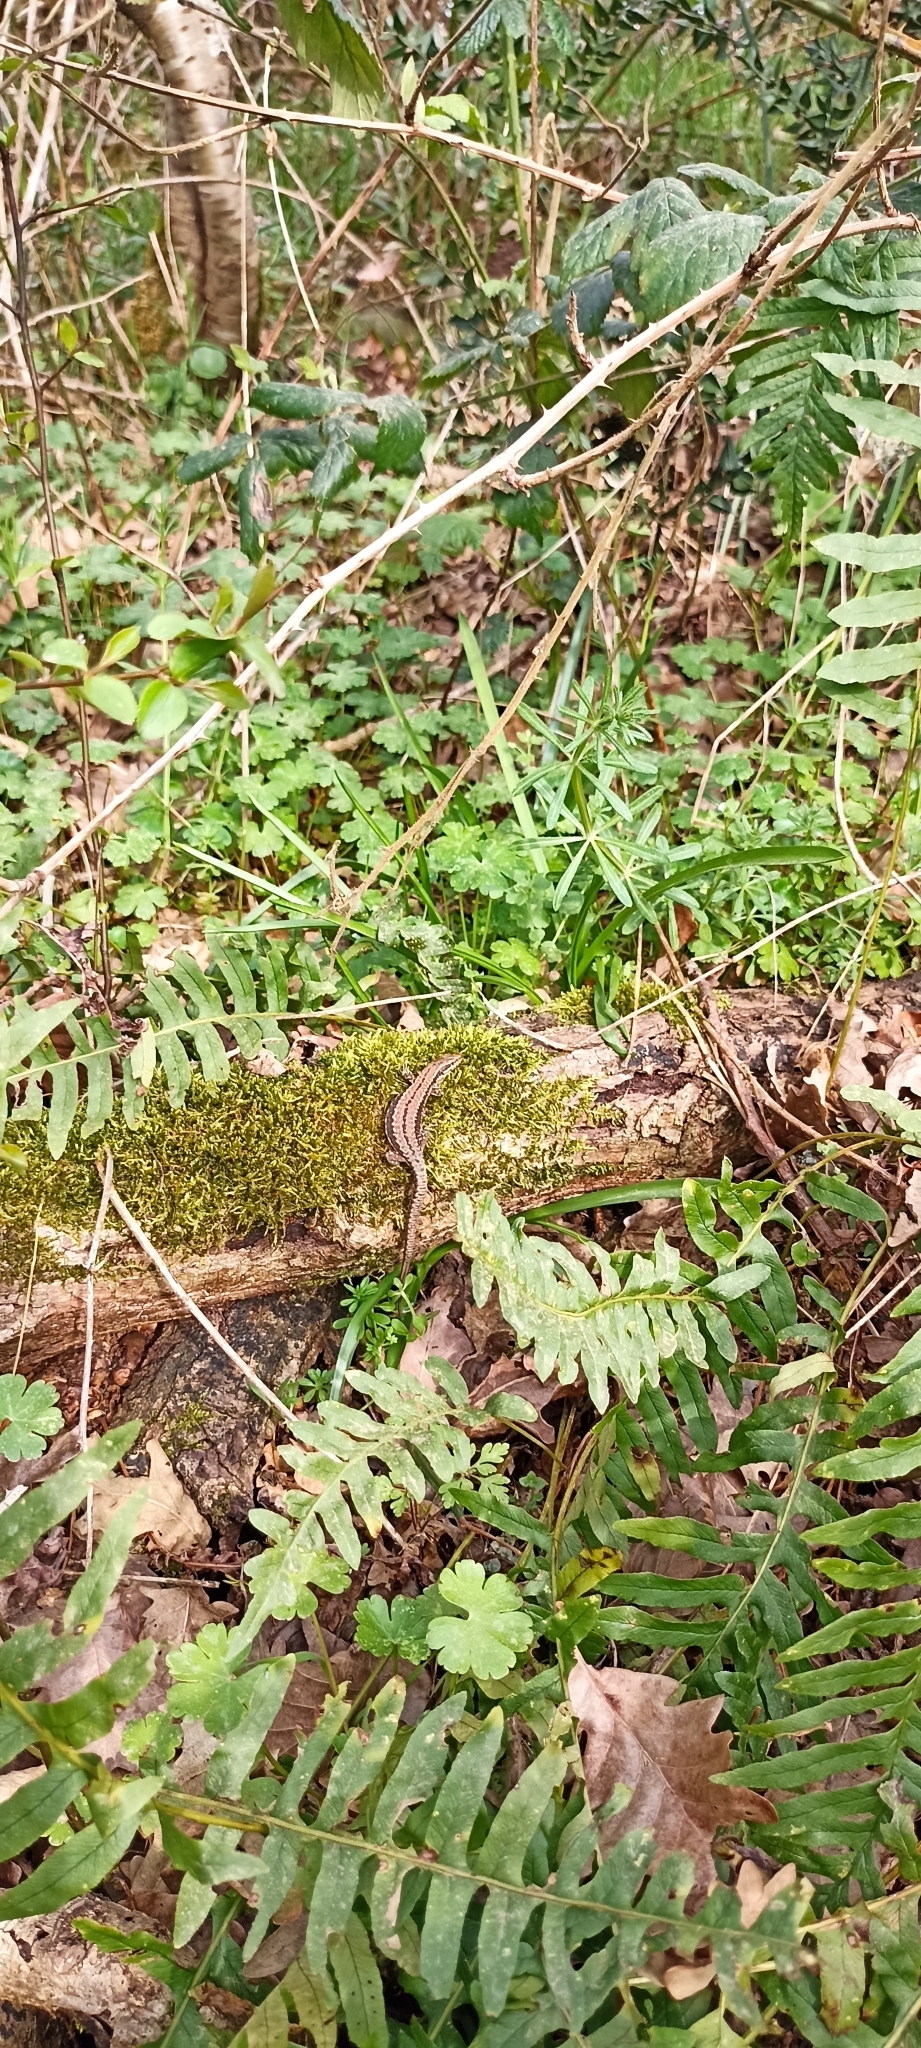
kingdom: Animalia
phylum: Chordata
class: Squamata
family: Lacertidae
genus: Podarcis
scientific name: Podarcis muralis
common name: Common wall lizard
